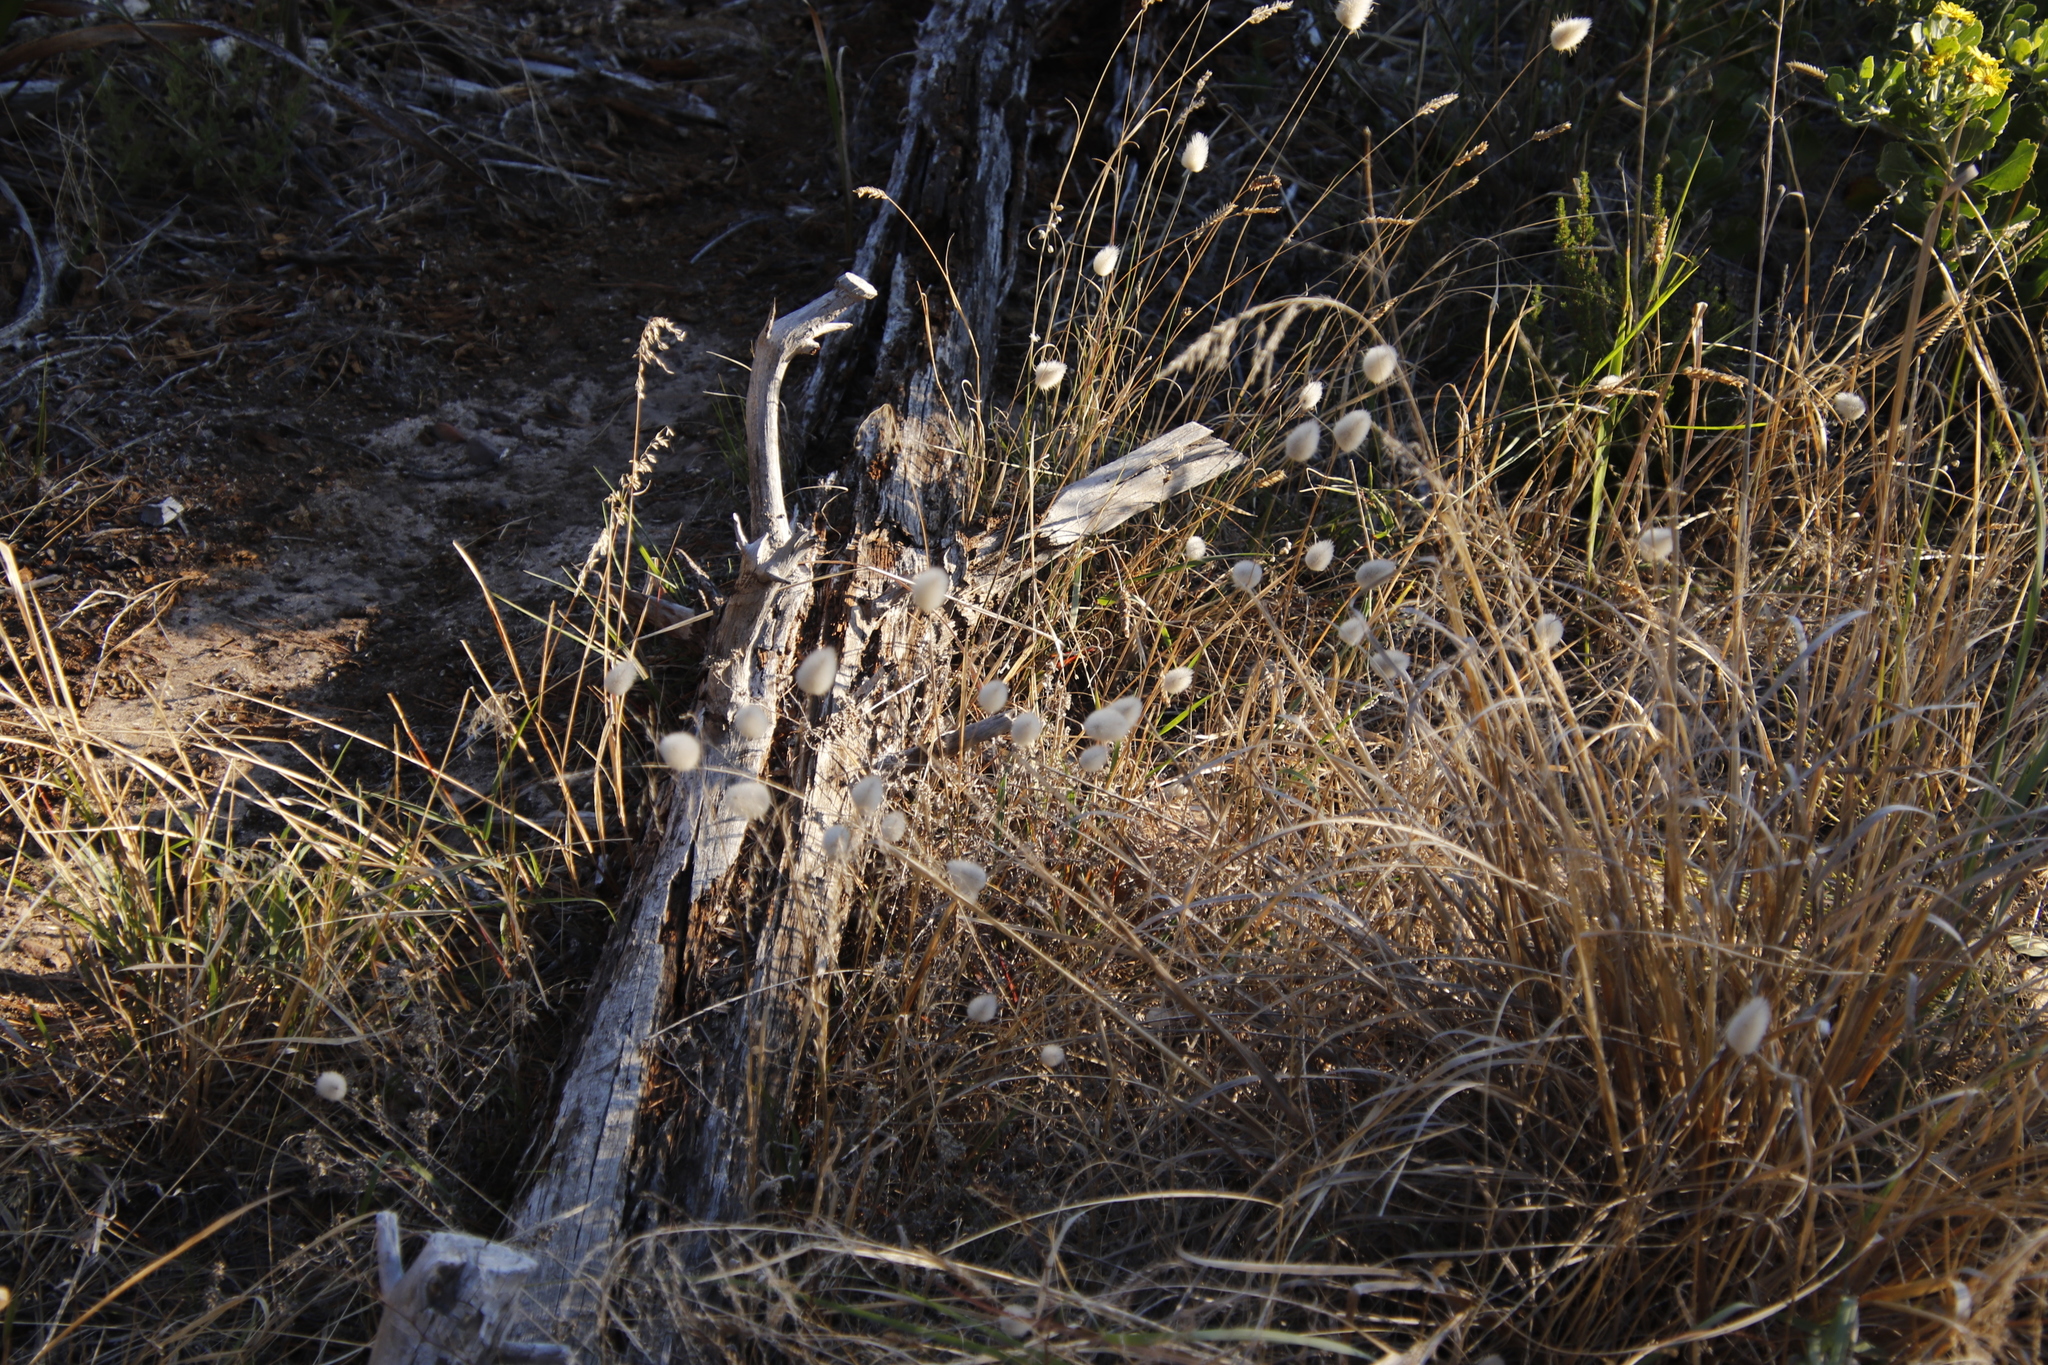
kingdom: Plantae
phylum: Tracheophyta
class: Liliopsida
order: Poales
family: Poaceae
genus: Lagurus
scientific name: Lagurus ovatus
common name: Hare's-tail
